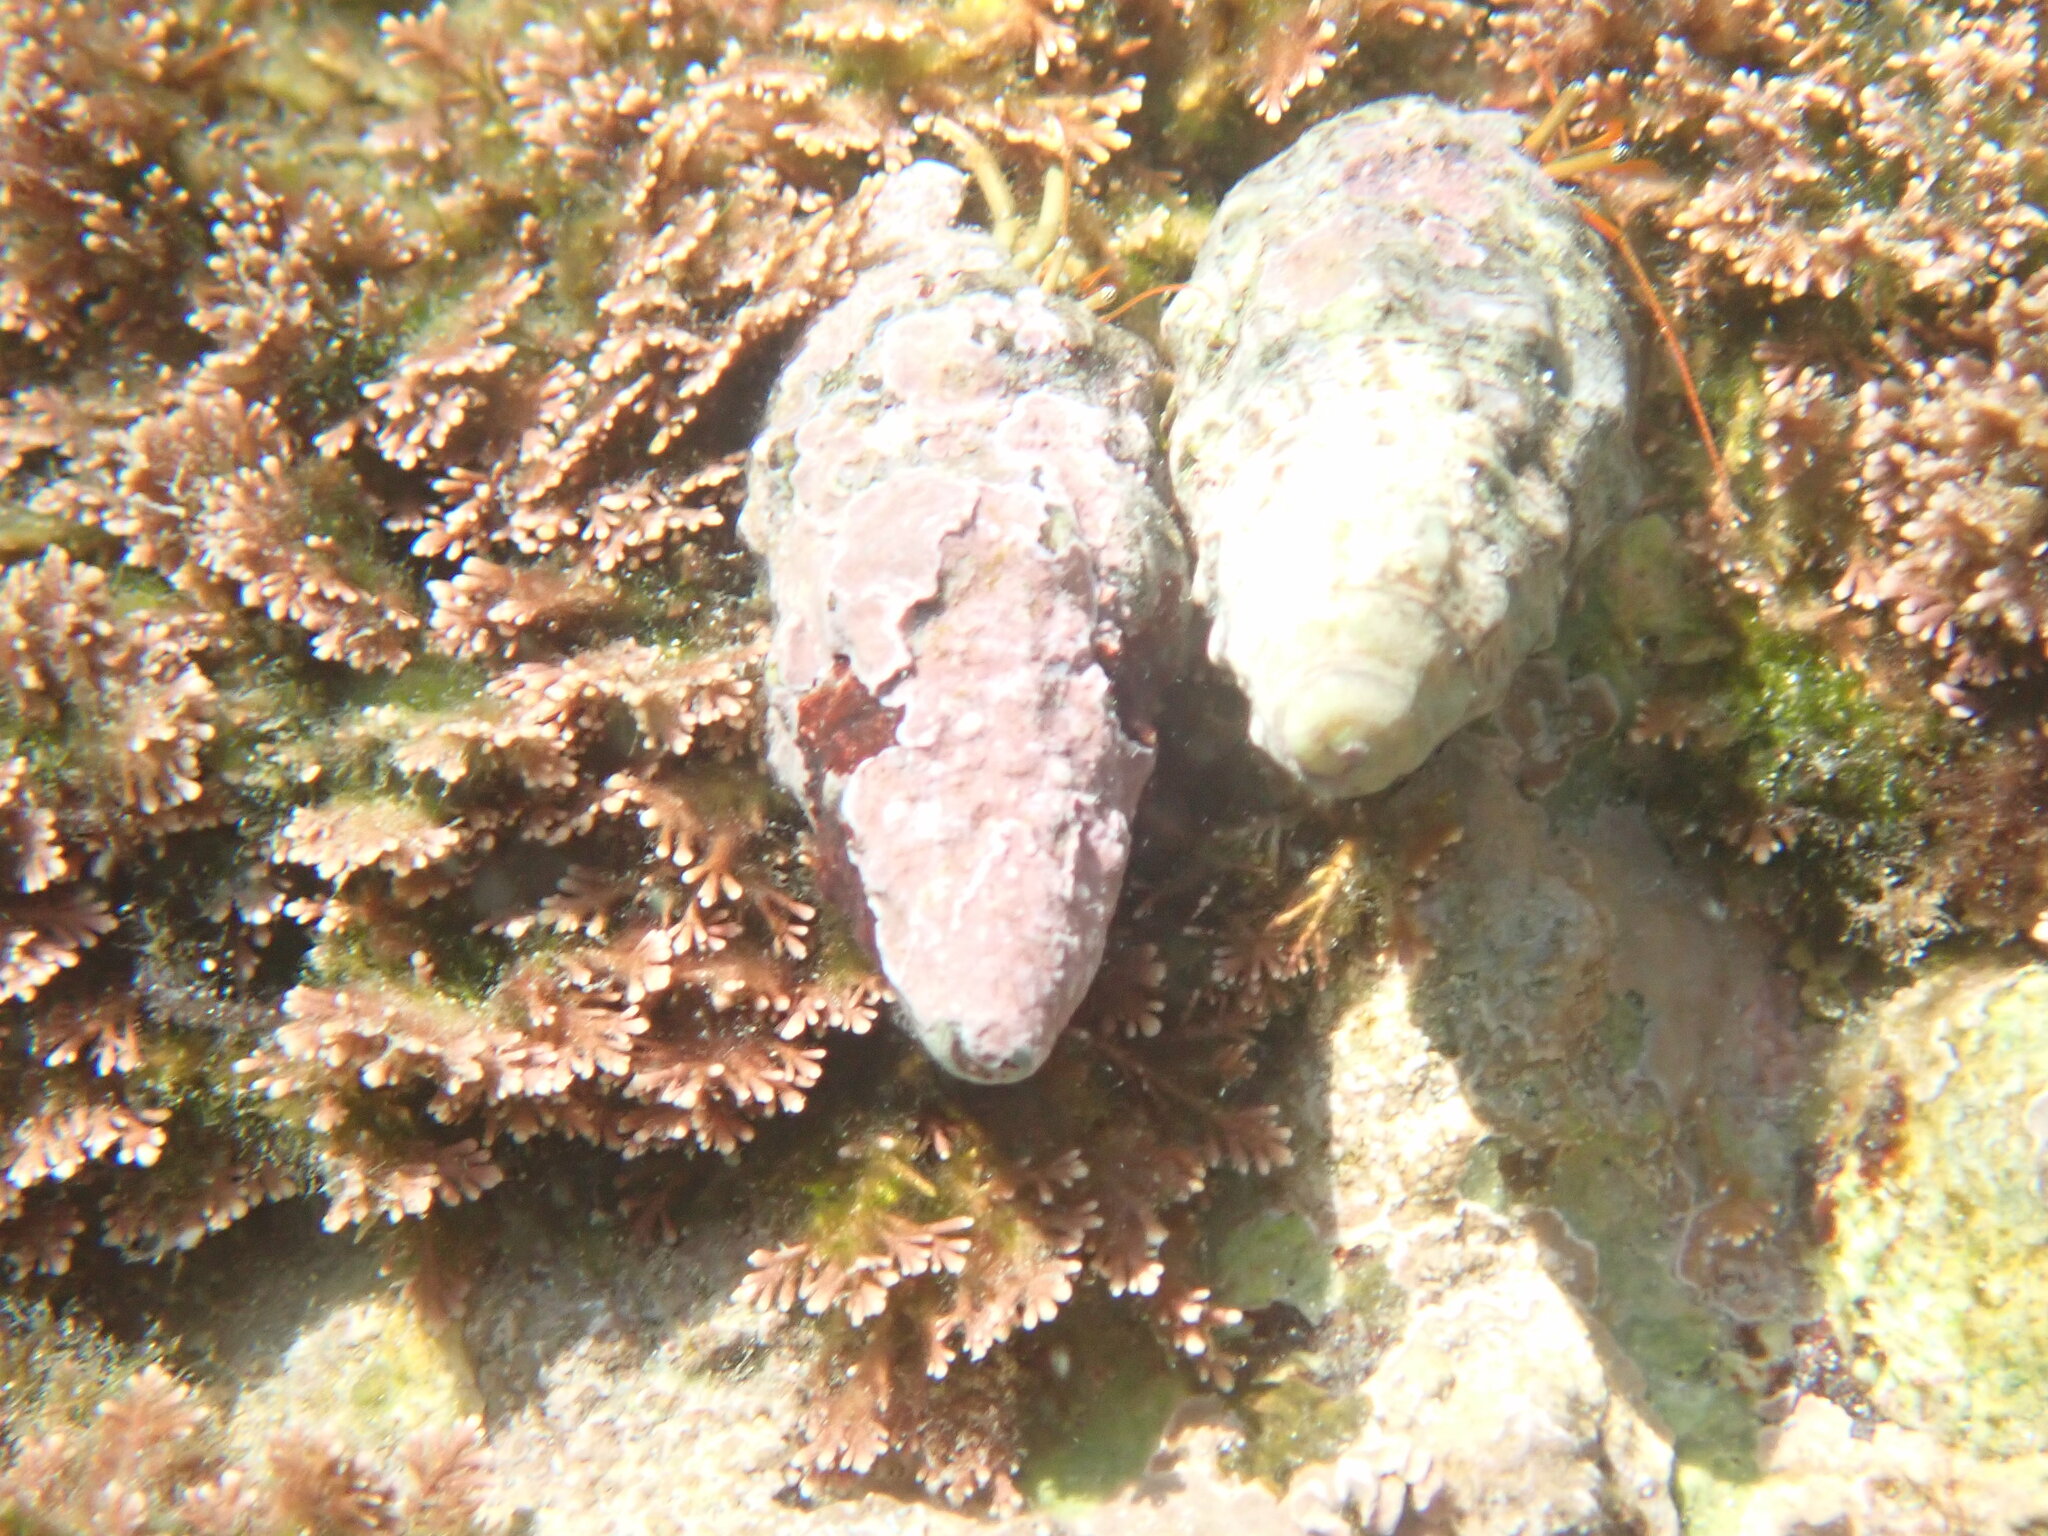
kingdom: Animalia
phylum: Arthropoda
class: Malacostraca
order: Decapoda
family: Diogenidae
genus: Clibanarius
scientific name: Clibanarius erythropus
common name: Hermit crab
